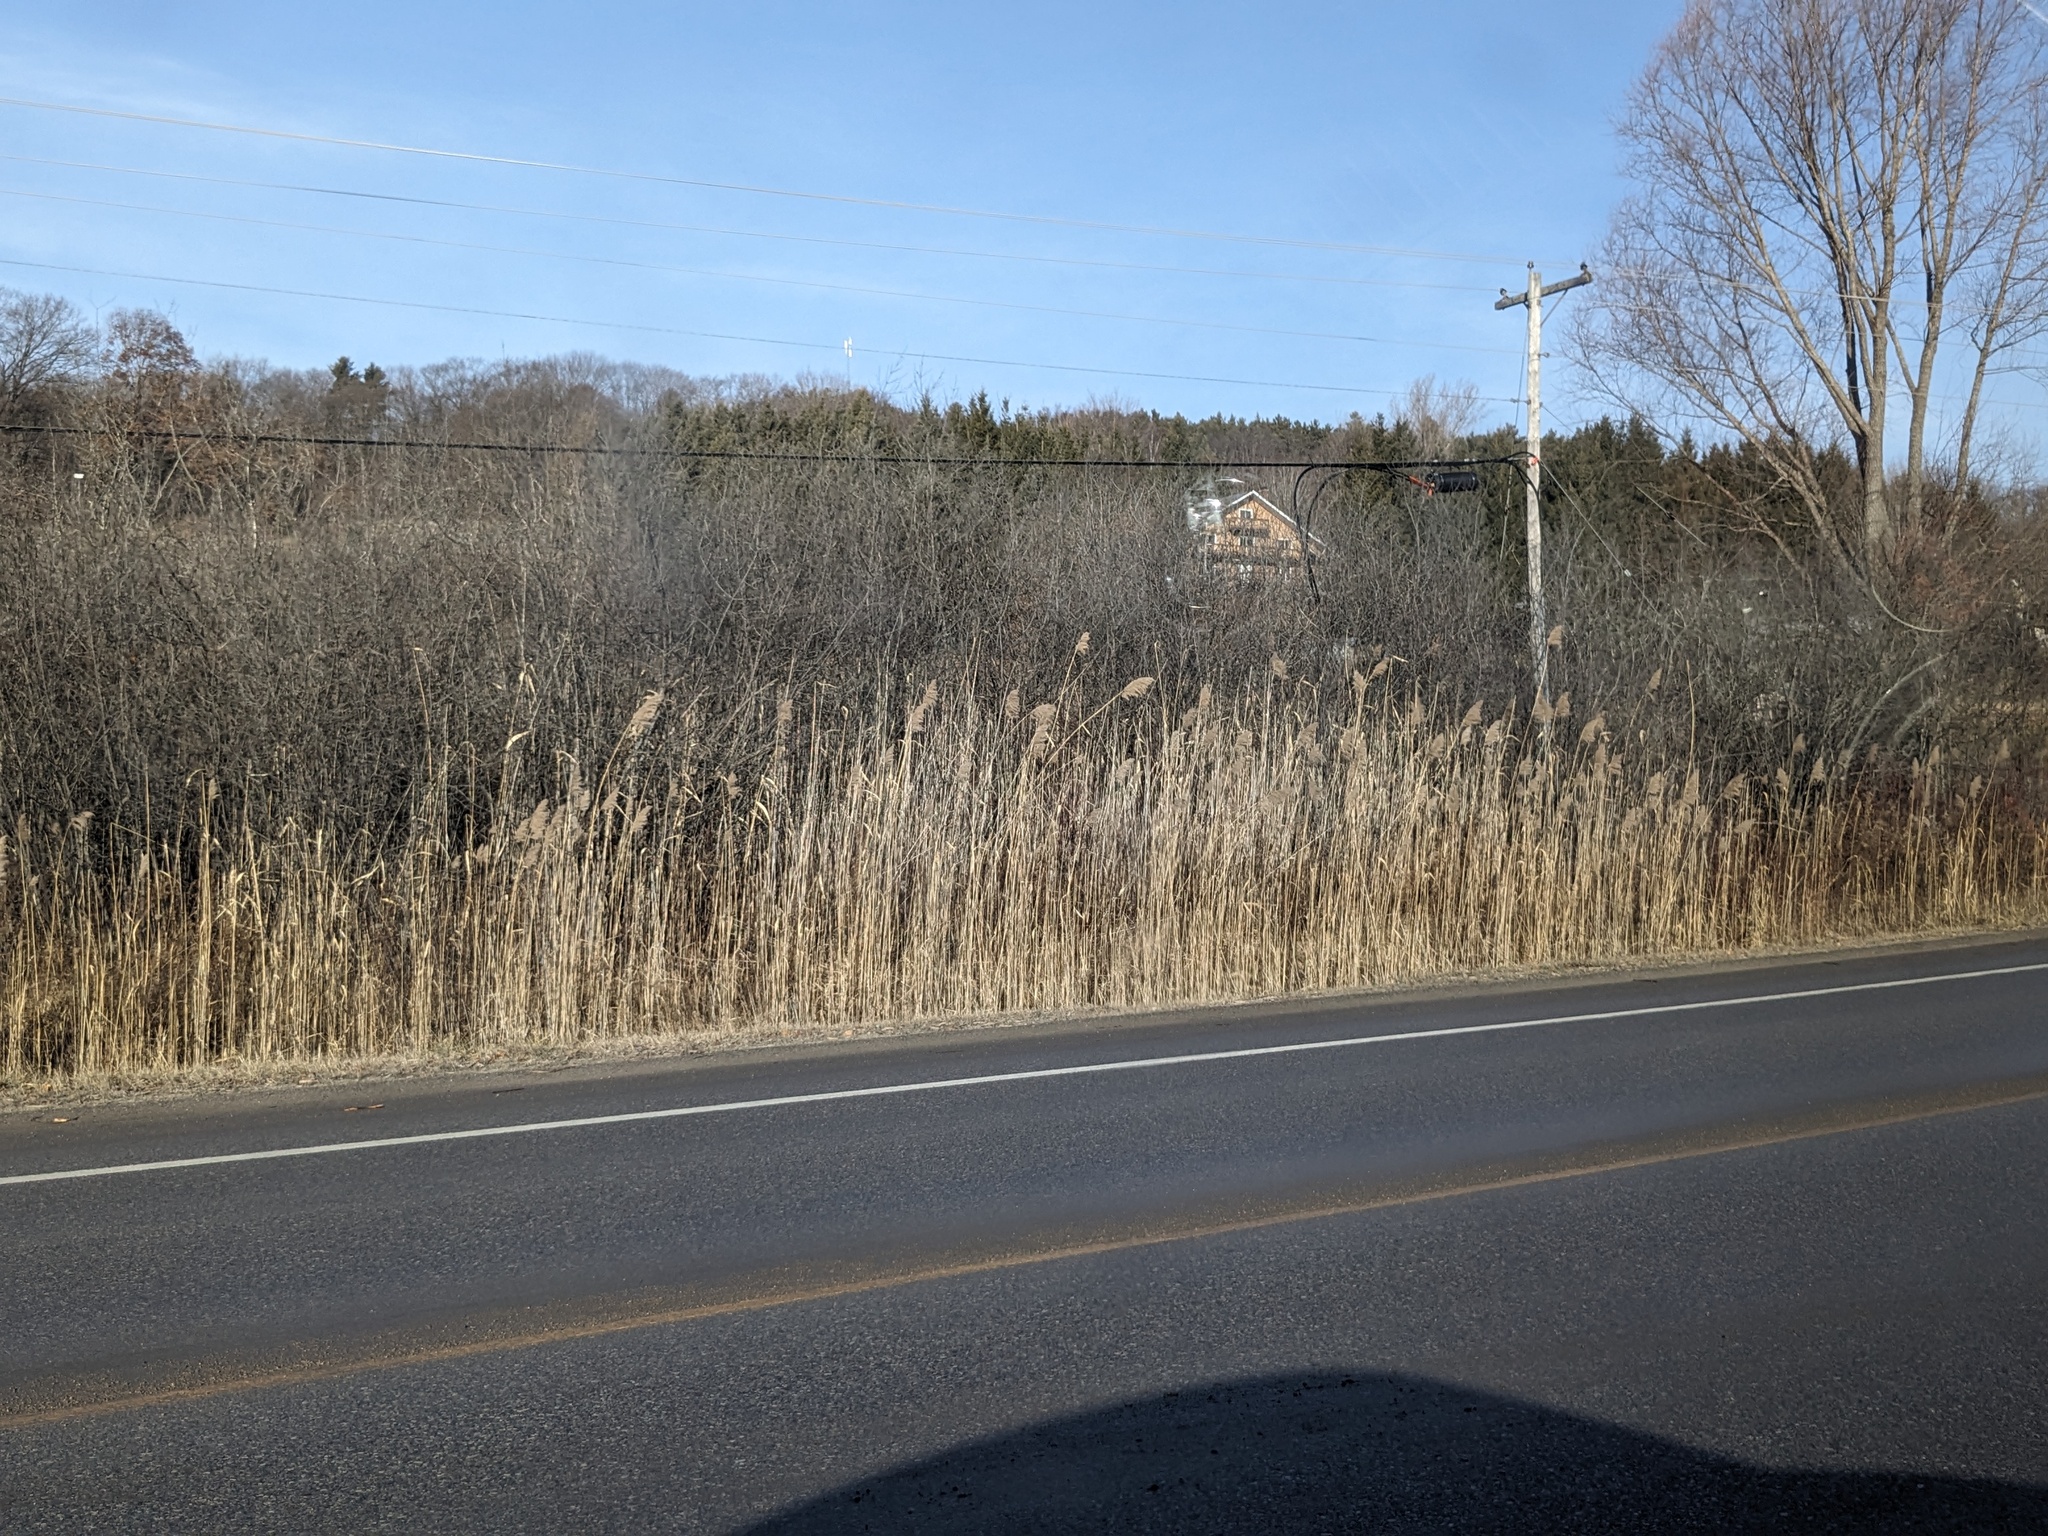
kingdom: Plantae
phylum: Tracheophyta
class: Liliopsida
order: Poales
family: Poaceae
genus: Phragmites
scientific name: Phragmites australis
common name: Common reed
